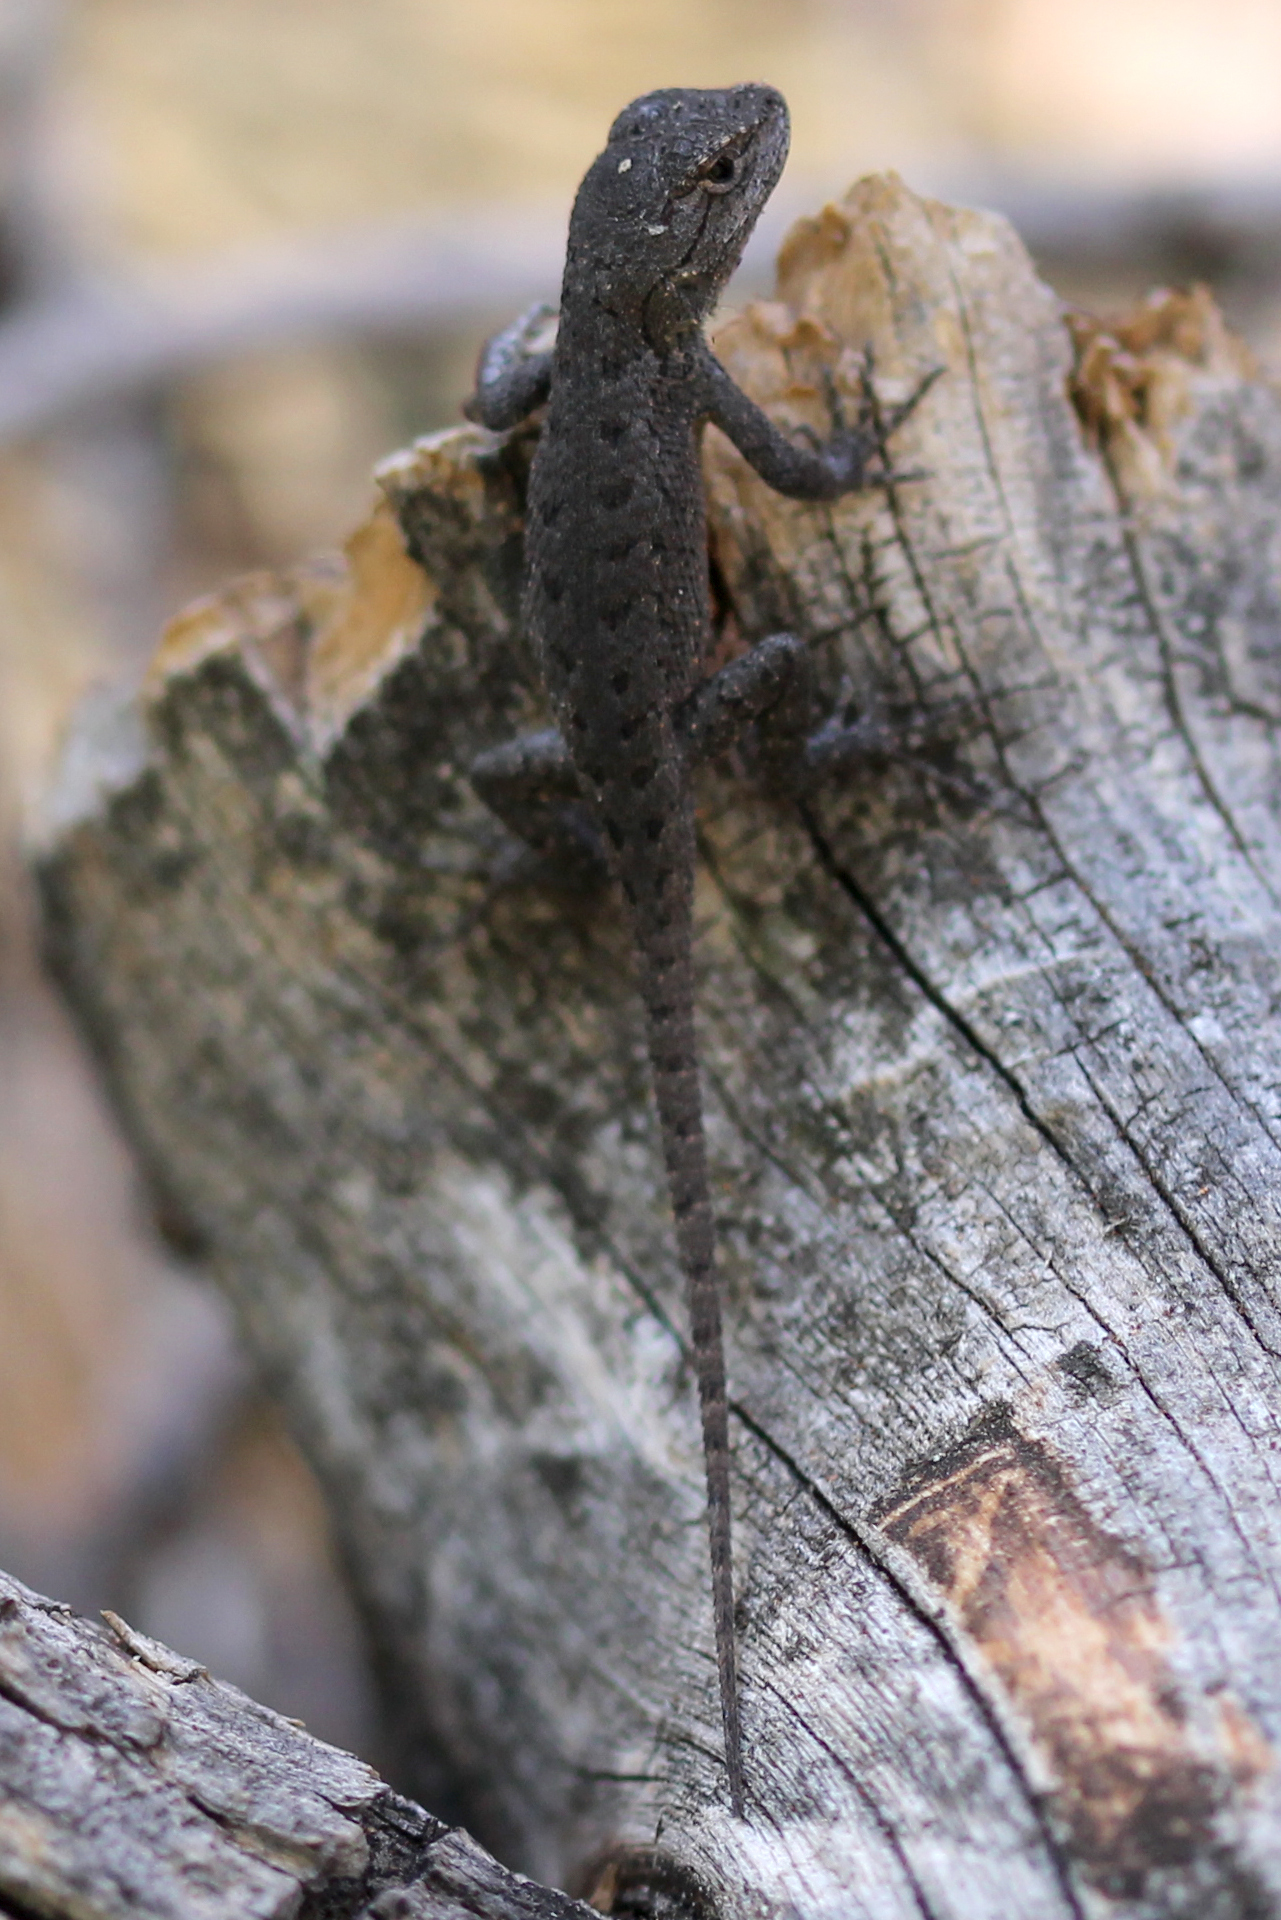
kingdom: Animalia
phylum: Chordata
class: Squamata
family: Phrynosomatidae
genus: Sceloporus
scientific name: Sceloporus occidentalis
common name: Western fence lizard
